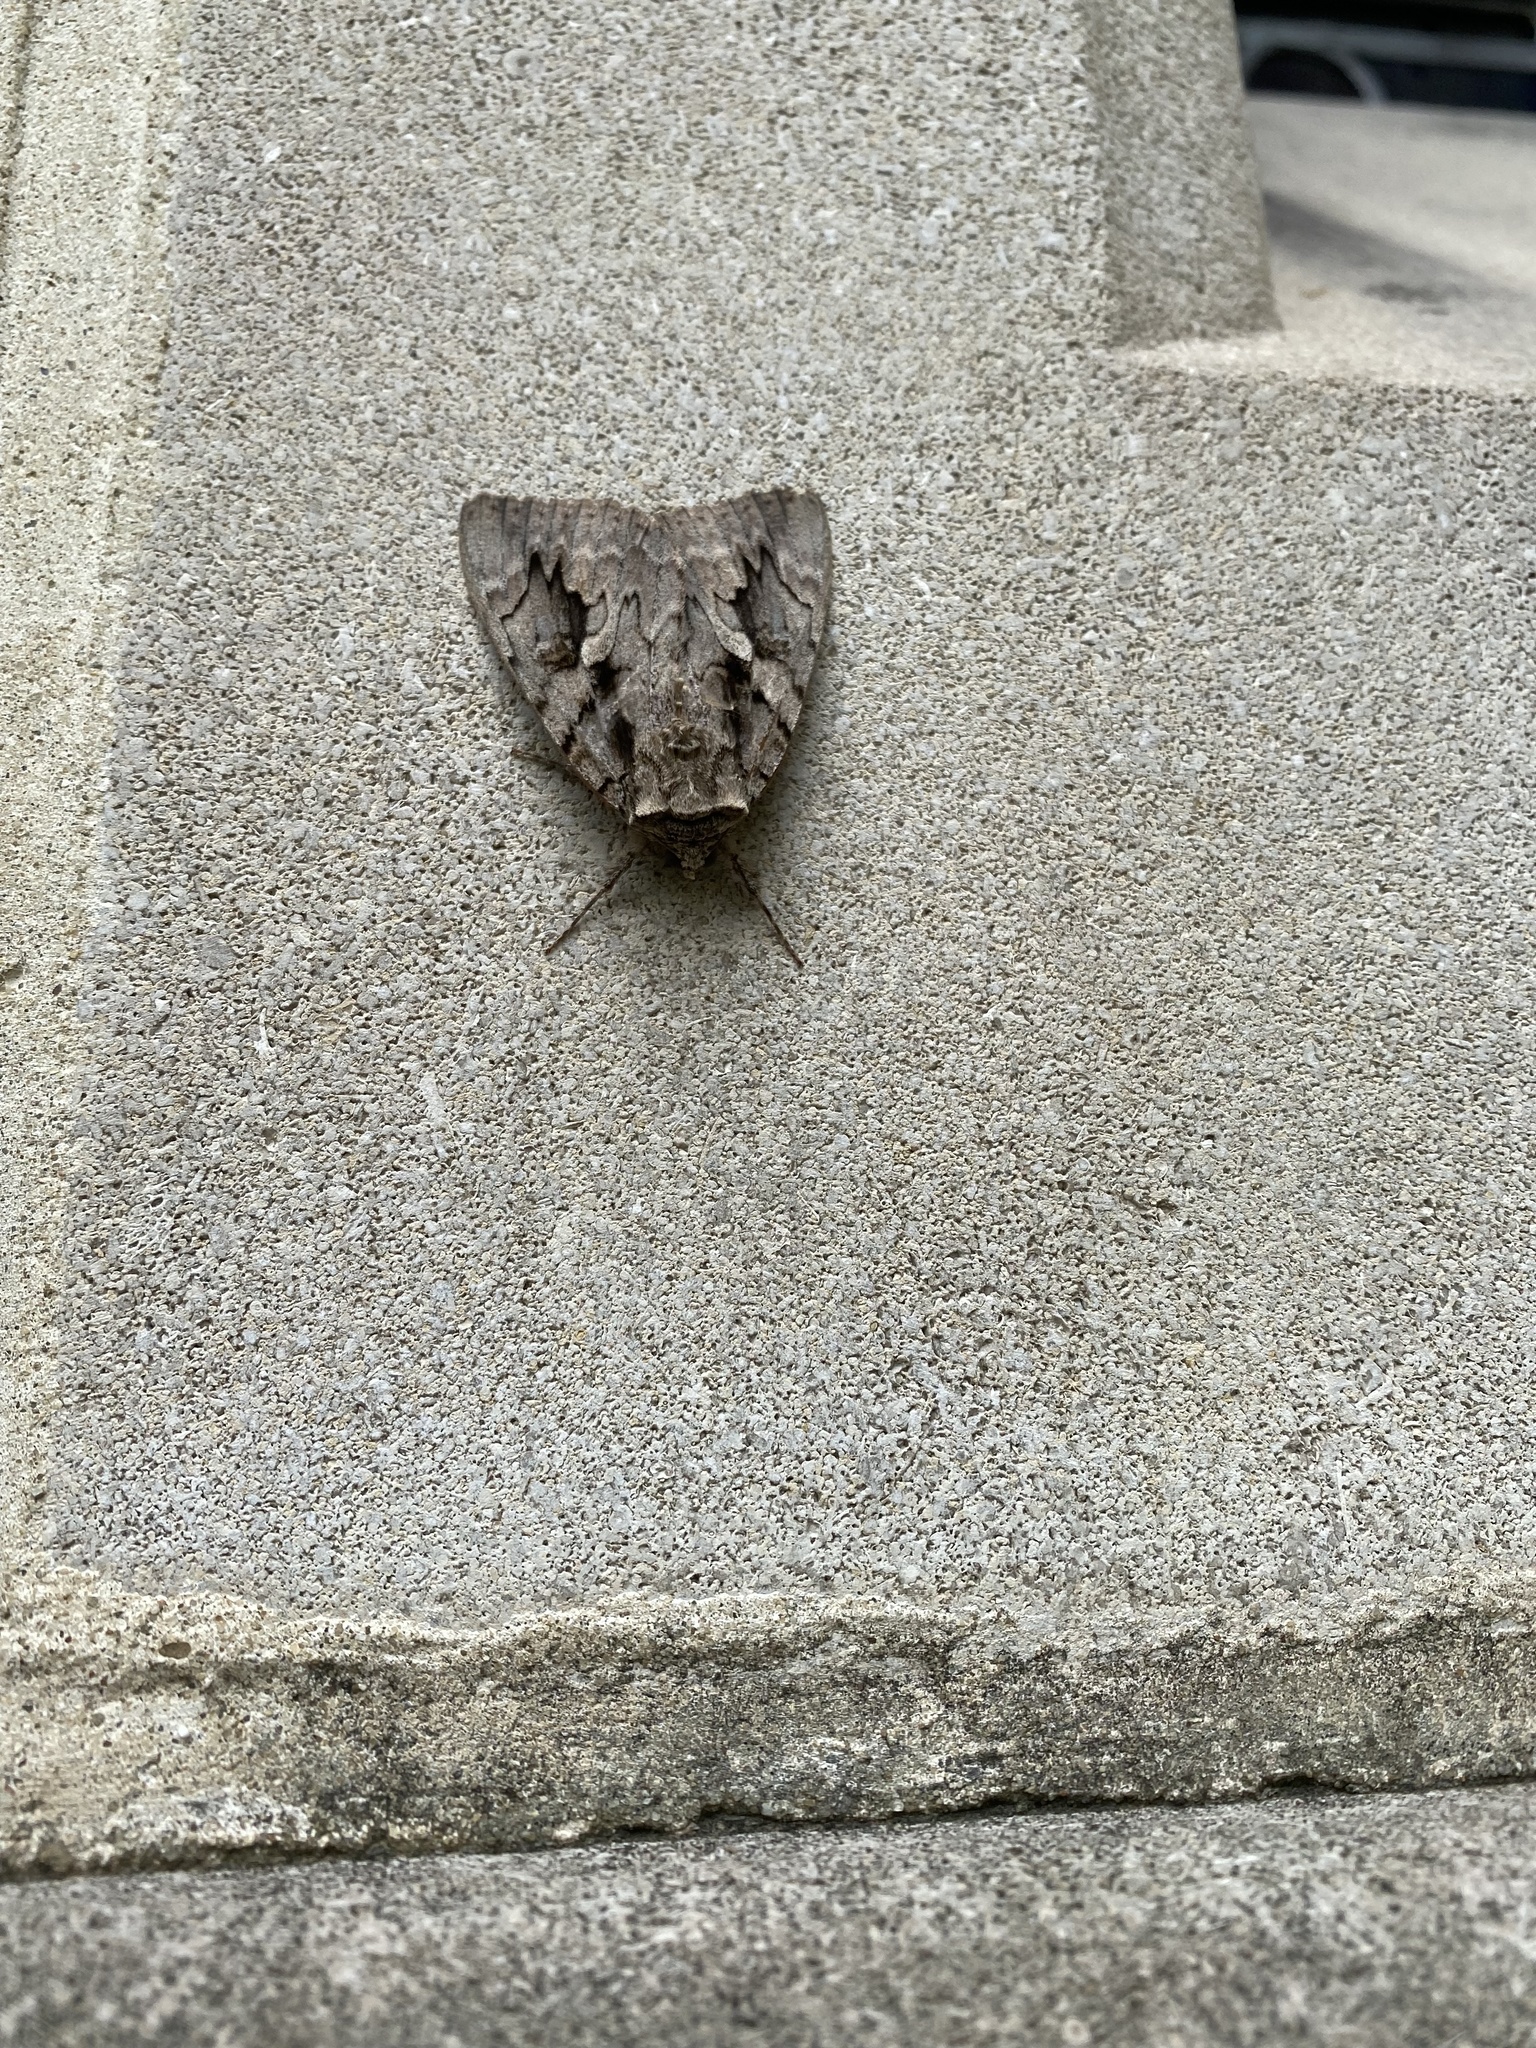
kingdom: Animalia
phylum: Arthropoda
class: Insecta
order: Lepidoptera
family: Erebidae
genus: Catocala
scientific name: Catocala amatrix
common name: Sweetheart underwing
